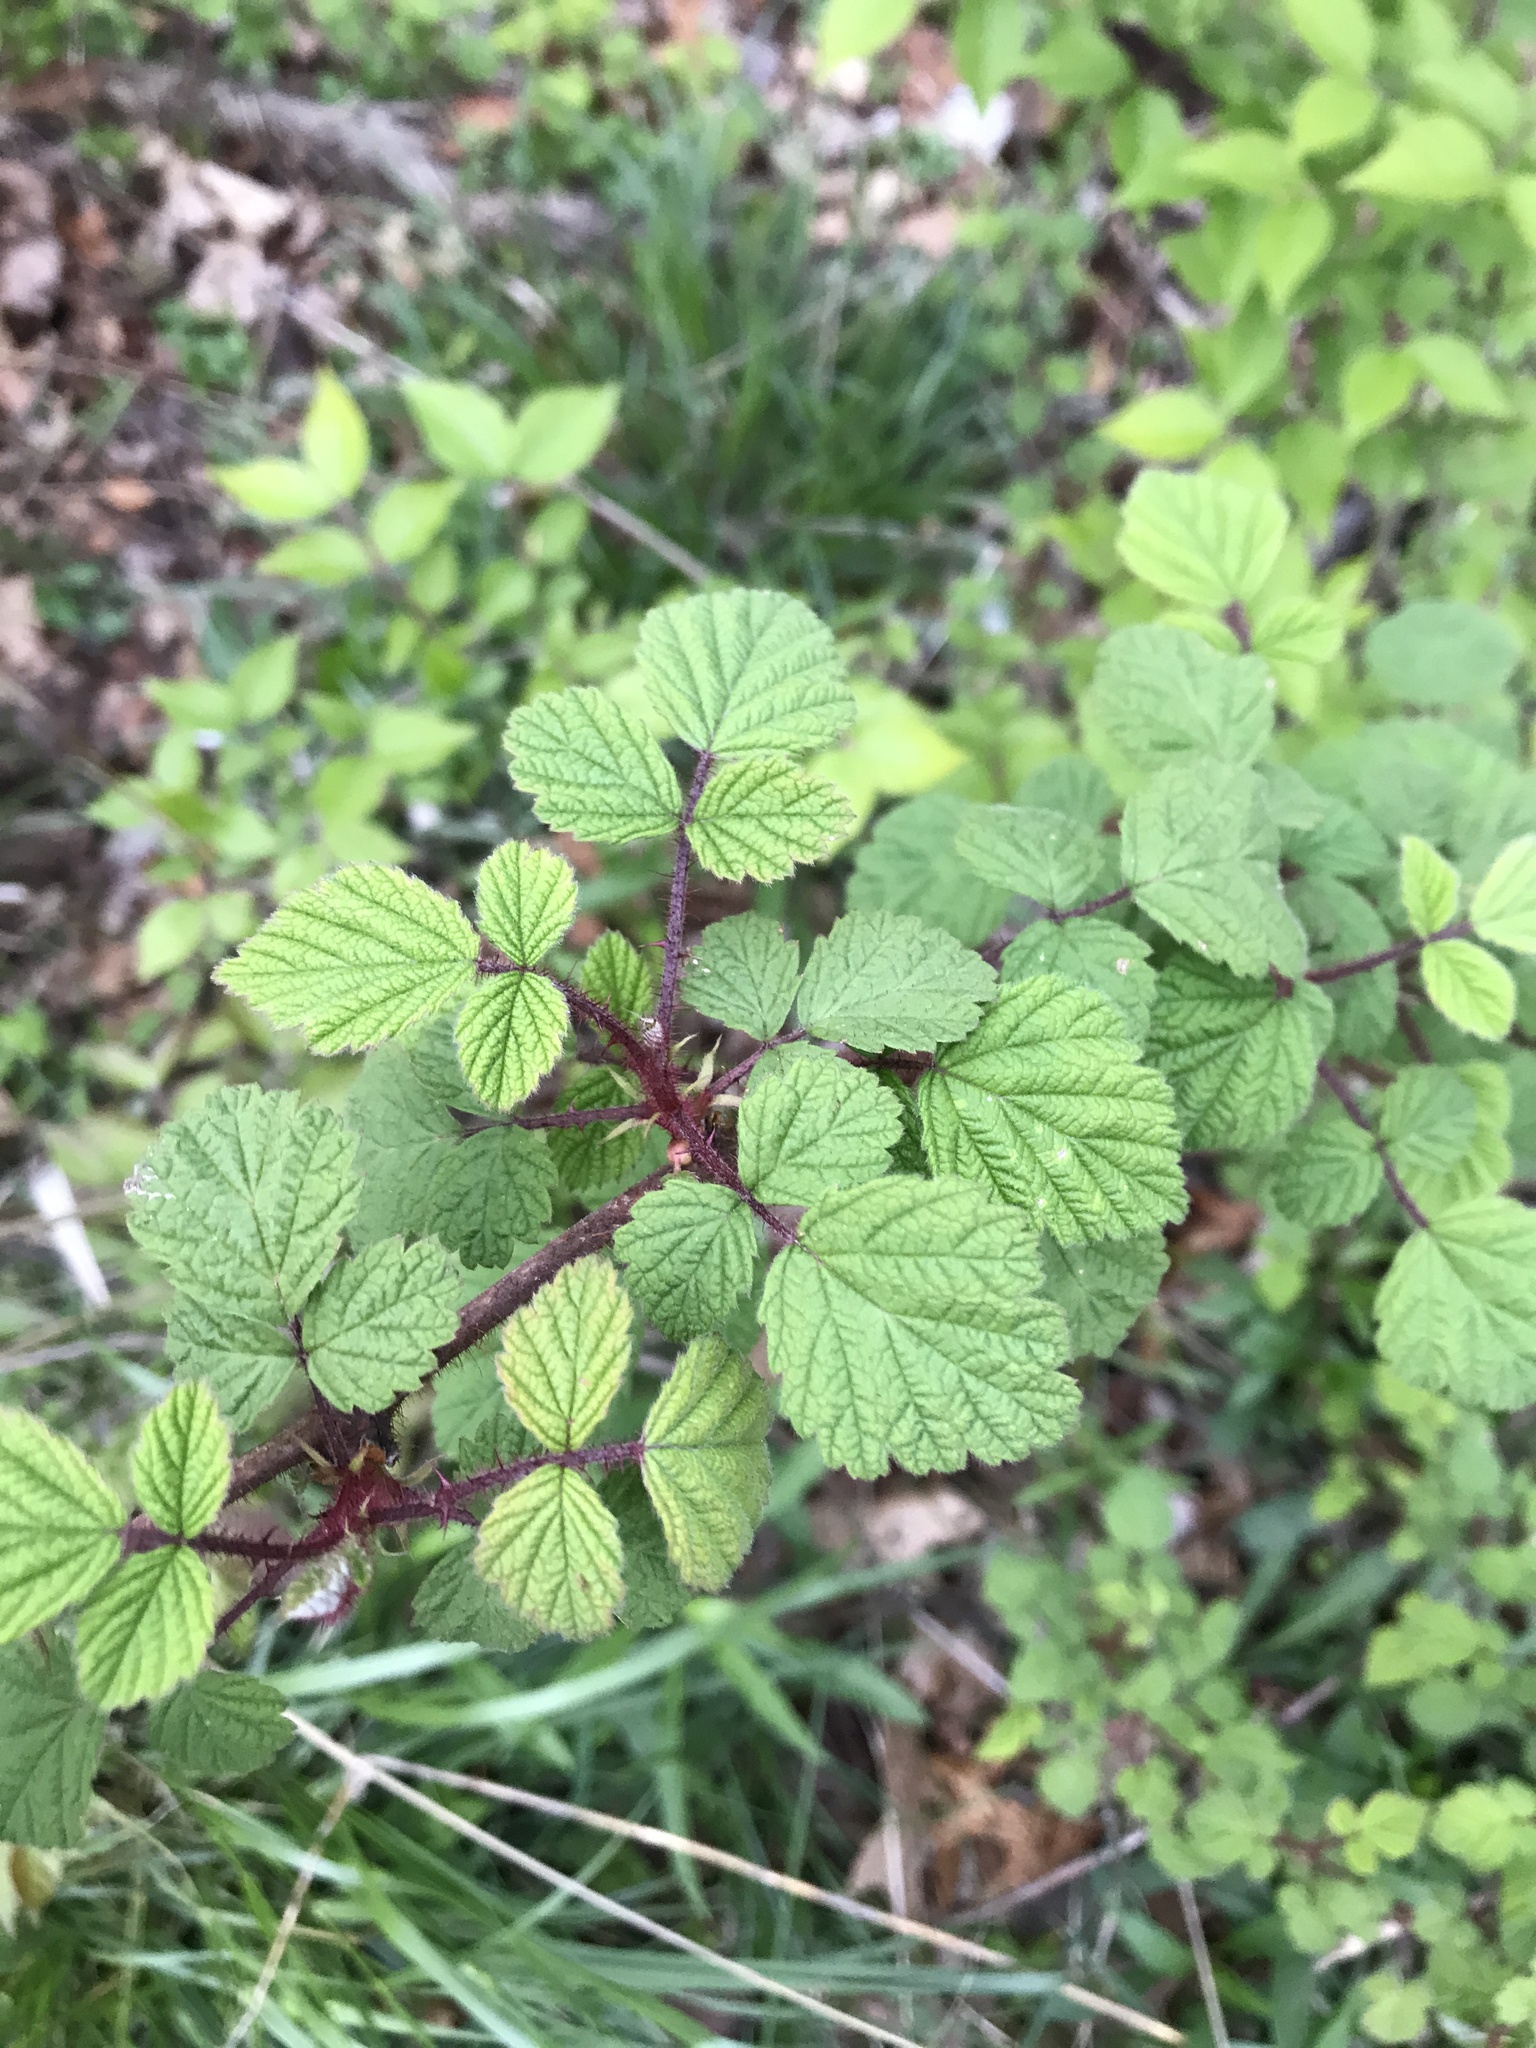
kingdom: Plantae
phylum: Tracheophyta
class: Magnoliopsida
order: Rosales
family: Rosaceae
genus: Rubus
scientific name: Rubus phoenicolasius
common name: Japanese wineberry
